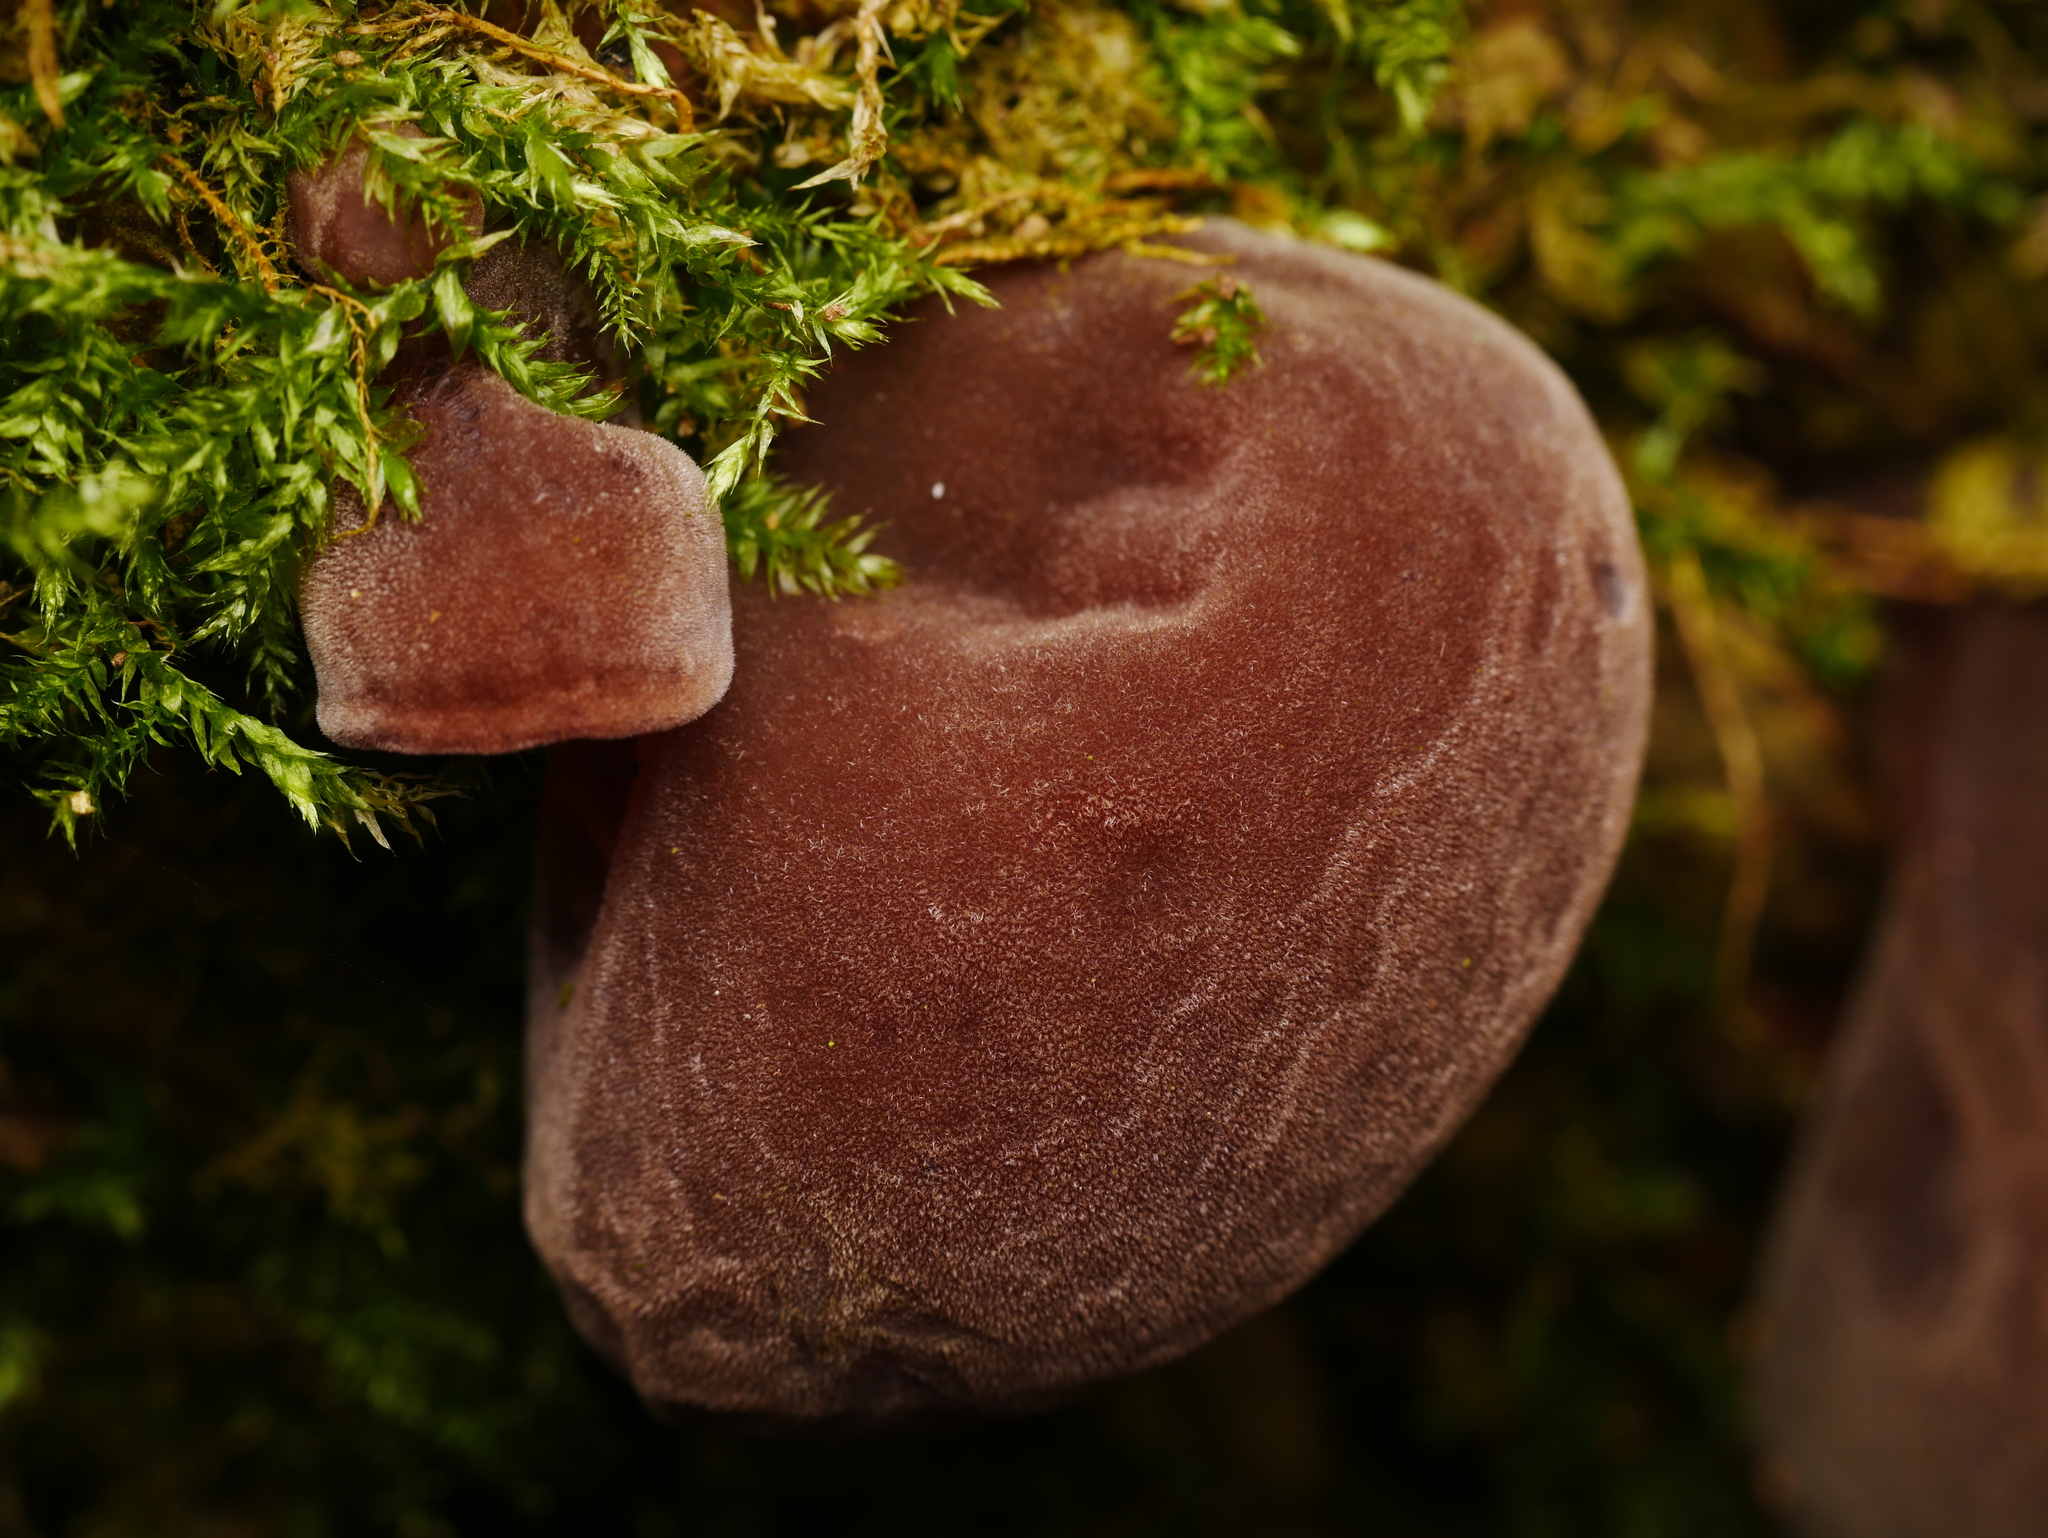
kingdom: Fungi
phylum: Basidiomycota
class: Agaricomycetes
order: Auriculariales
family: Auriculariaceae
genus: Auricularia
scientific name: Auricularia auricula-judae
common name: Jelly ear
